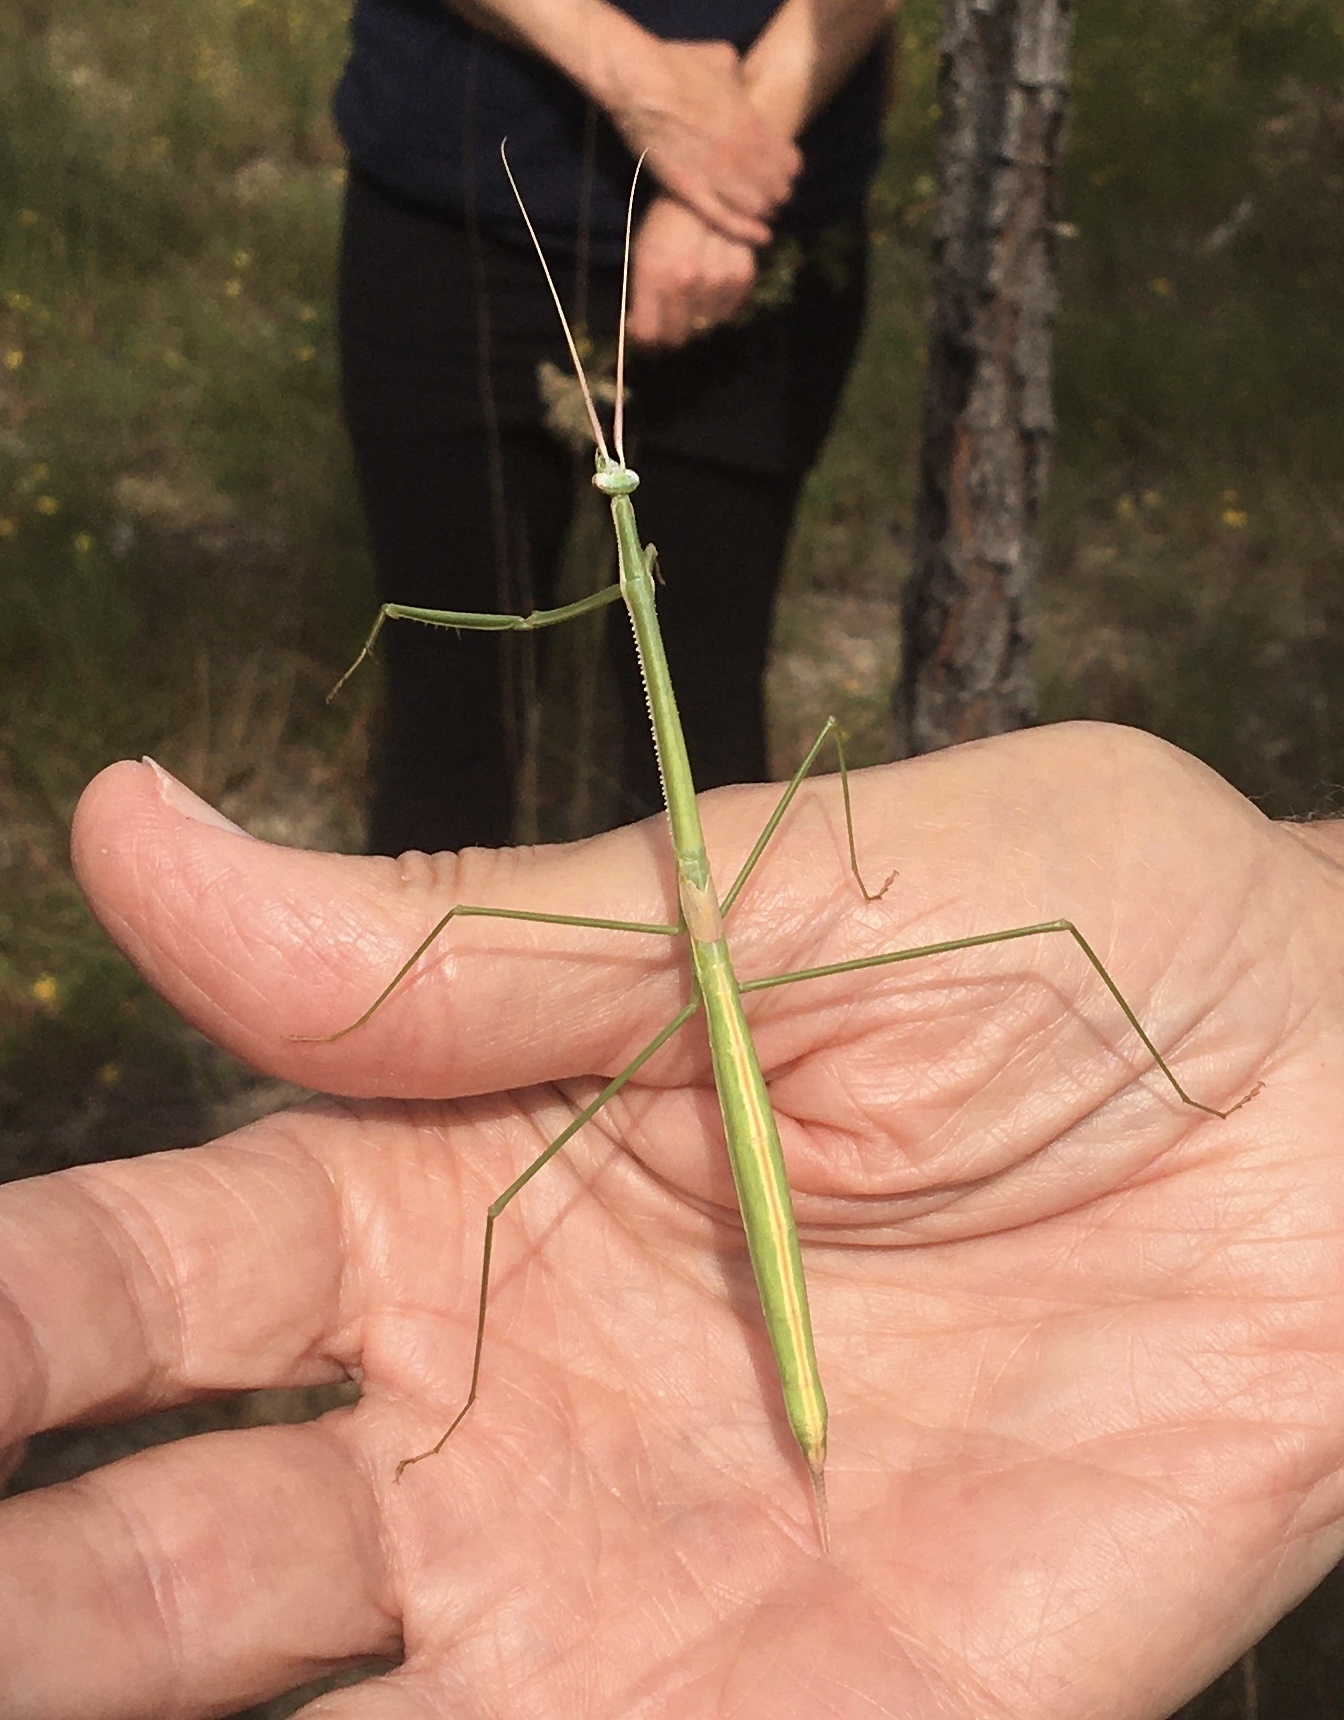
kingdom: Animalia
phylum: Arthropoda
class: Insecta
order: Mantodea
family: Coptopterygidae
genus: Brunneria
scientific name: Brunneria borealis
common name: Mantis
